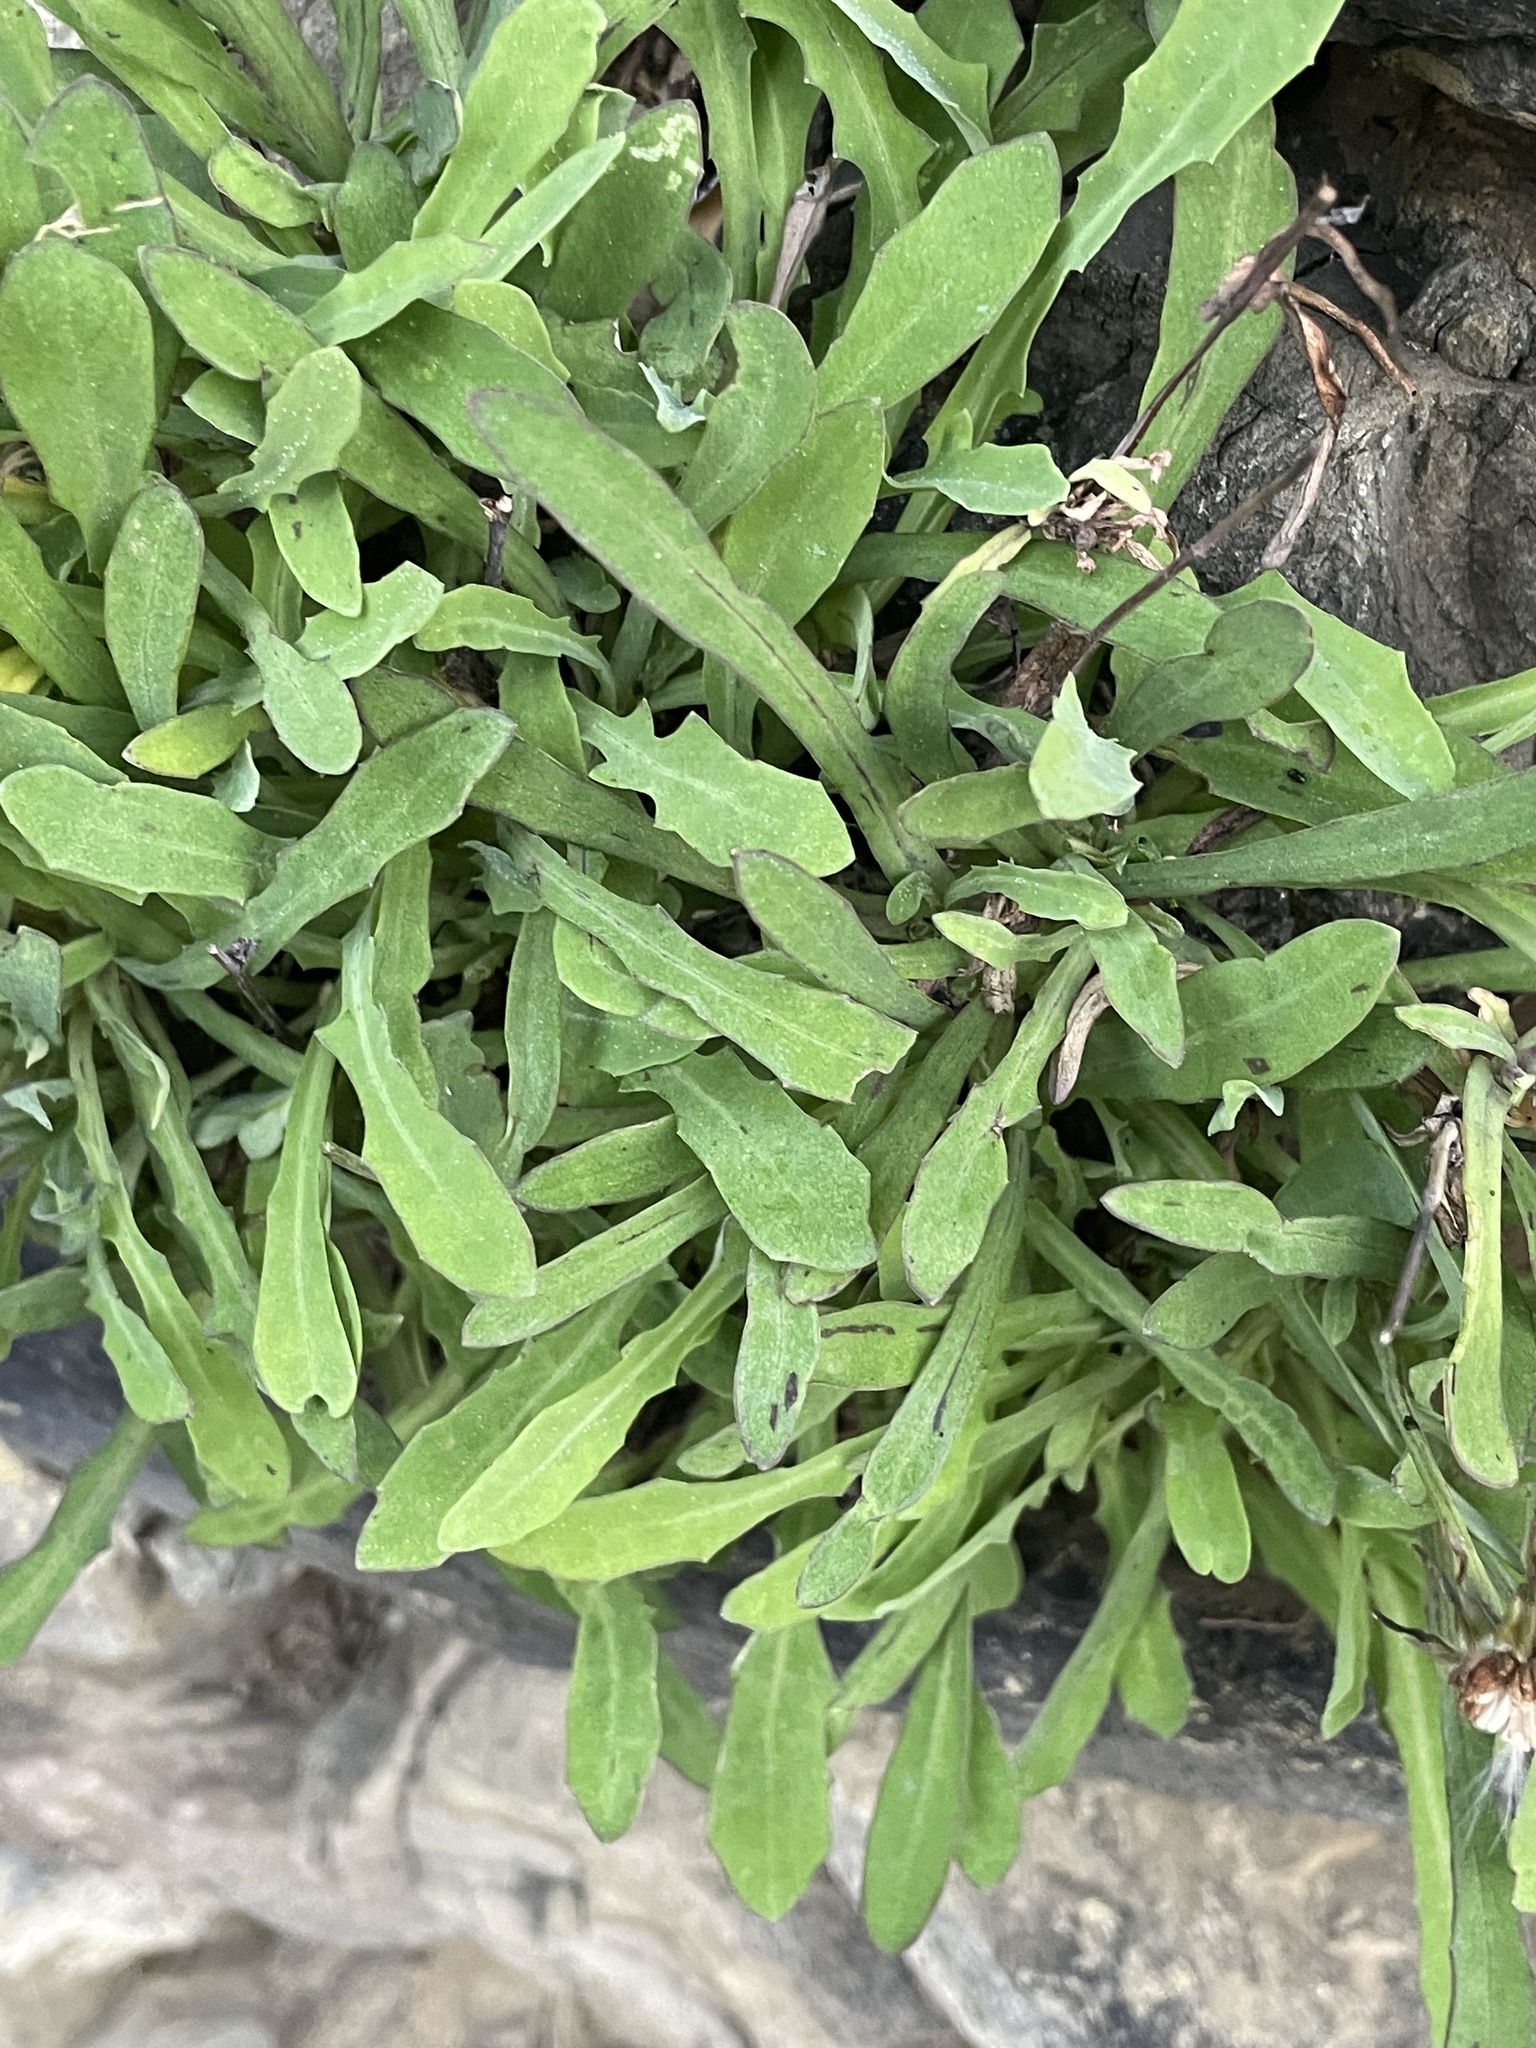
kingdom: Plantae
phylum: Tracheophyta
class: Magnoliopsida
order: Asterales
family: Asteraceae
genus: Reichardia
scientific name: Reichardia picroides
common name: Common brighteyes
